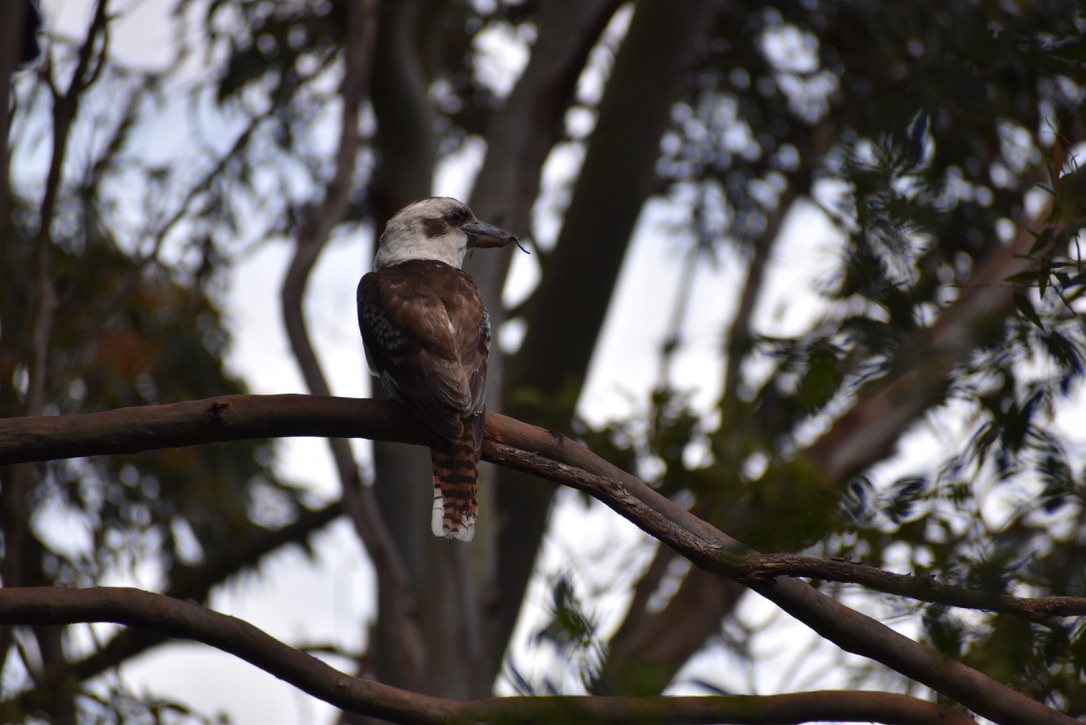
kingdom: Animalia
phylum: Chordata
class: Aves
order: Coraciiformes
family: Alcedinidae
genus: Dacelo
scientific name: Dacelo novaeguineae
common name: Laughing kookaburra
